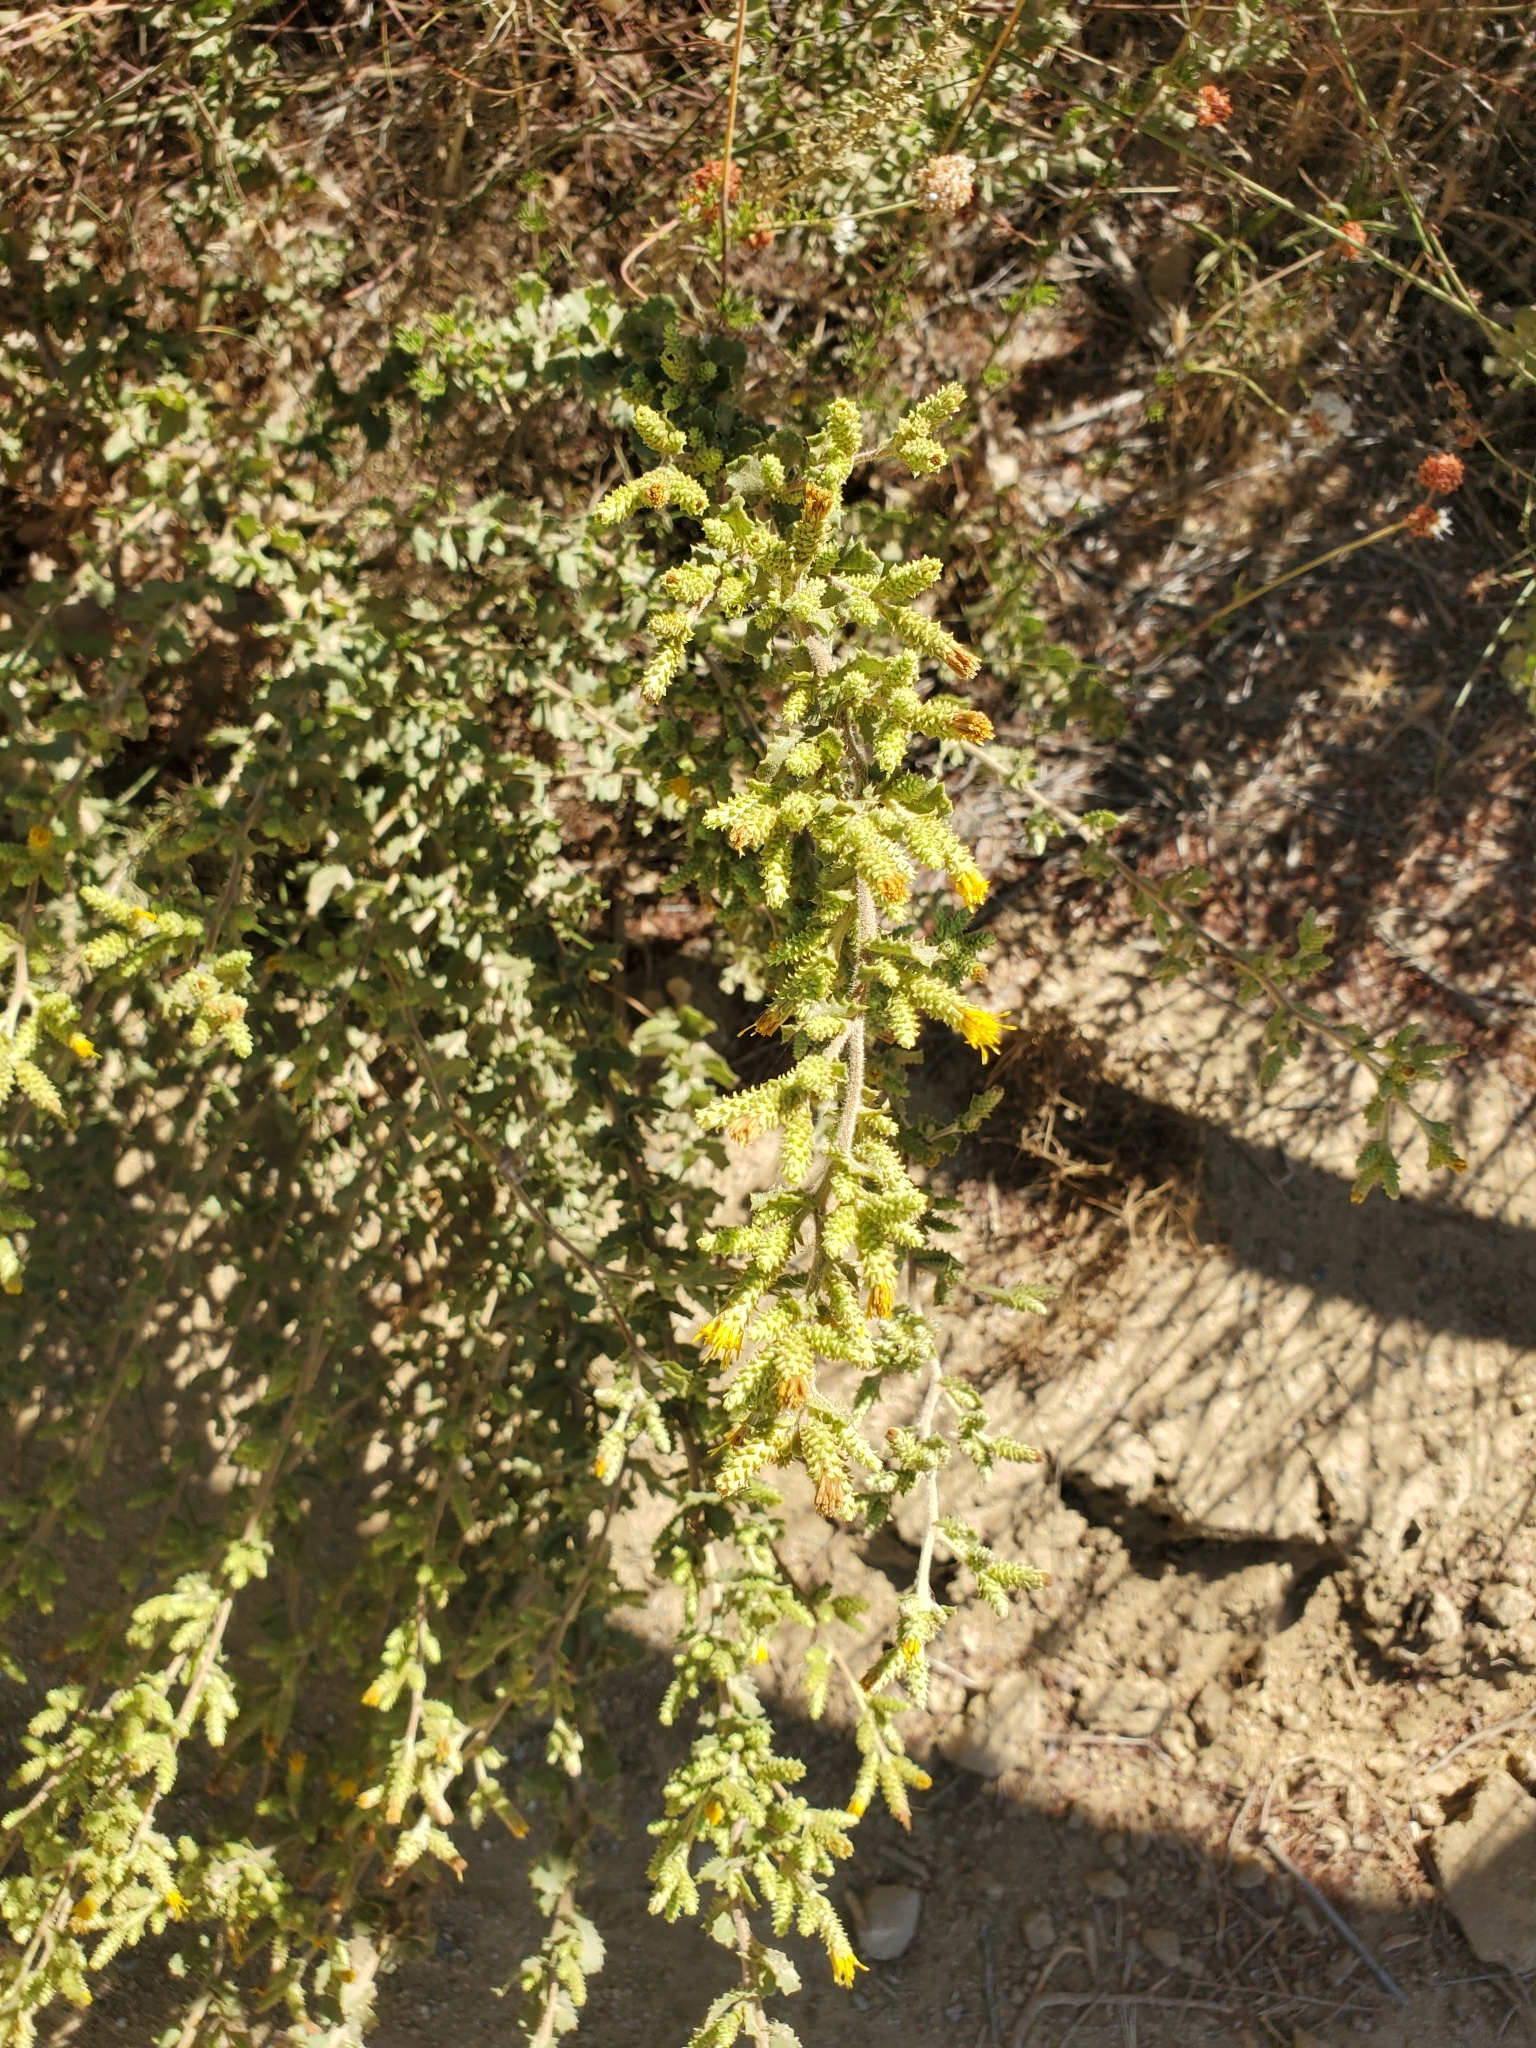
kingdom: Plantae
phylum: Tracheophyta
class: Magnoliopsida
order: Asterales
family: Asteraceae
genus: Hazardia
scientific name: Hazardia squarrosa
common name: Saw-tooth goldenbush
